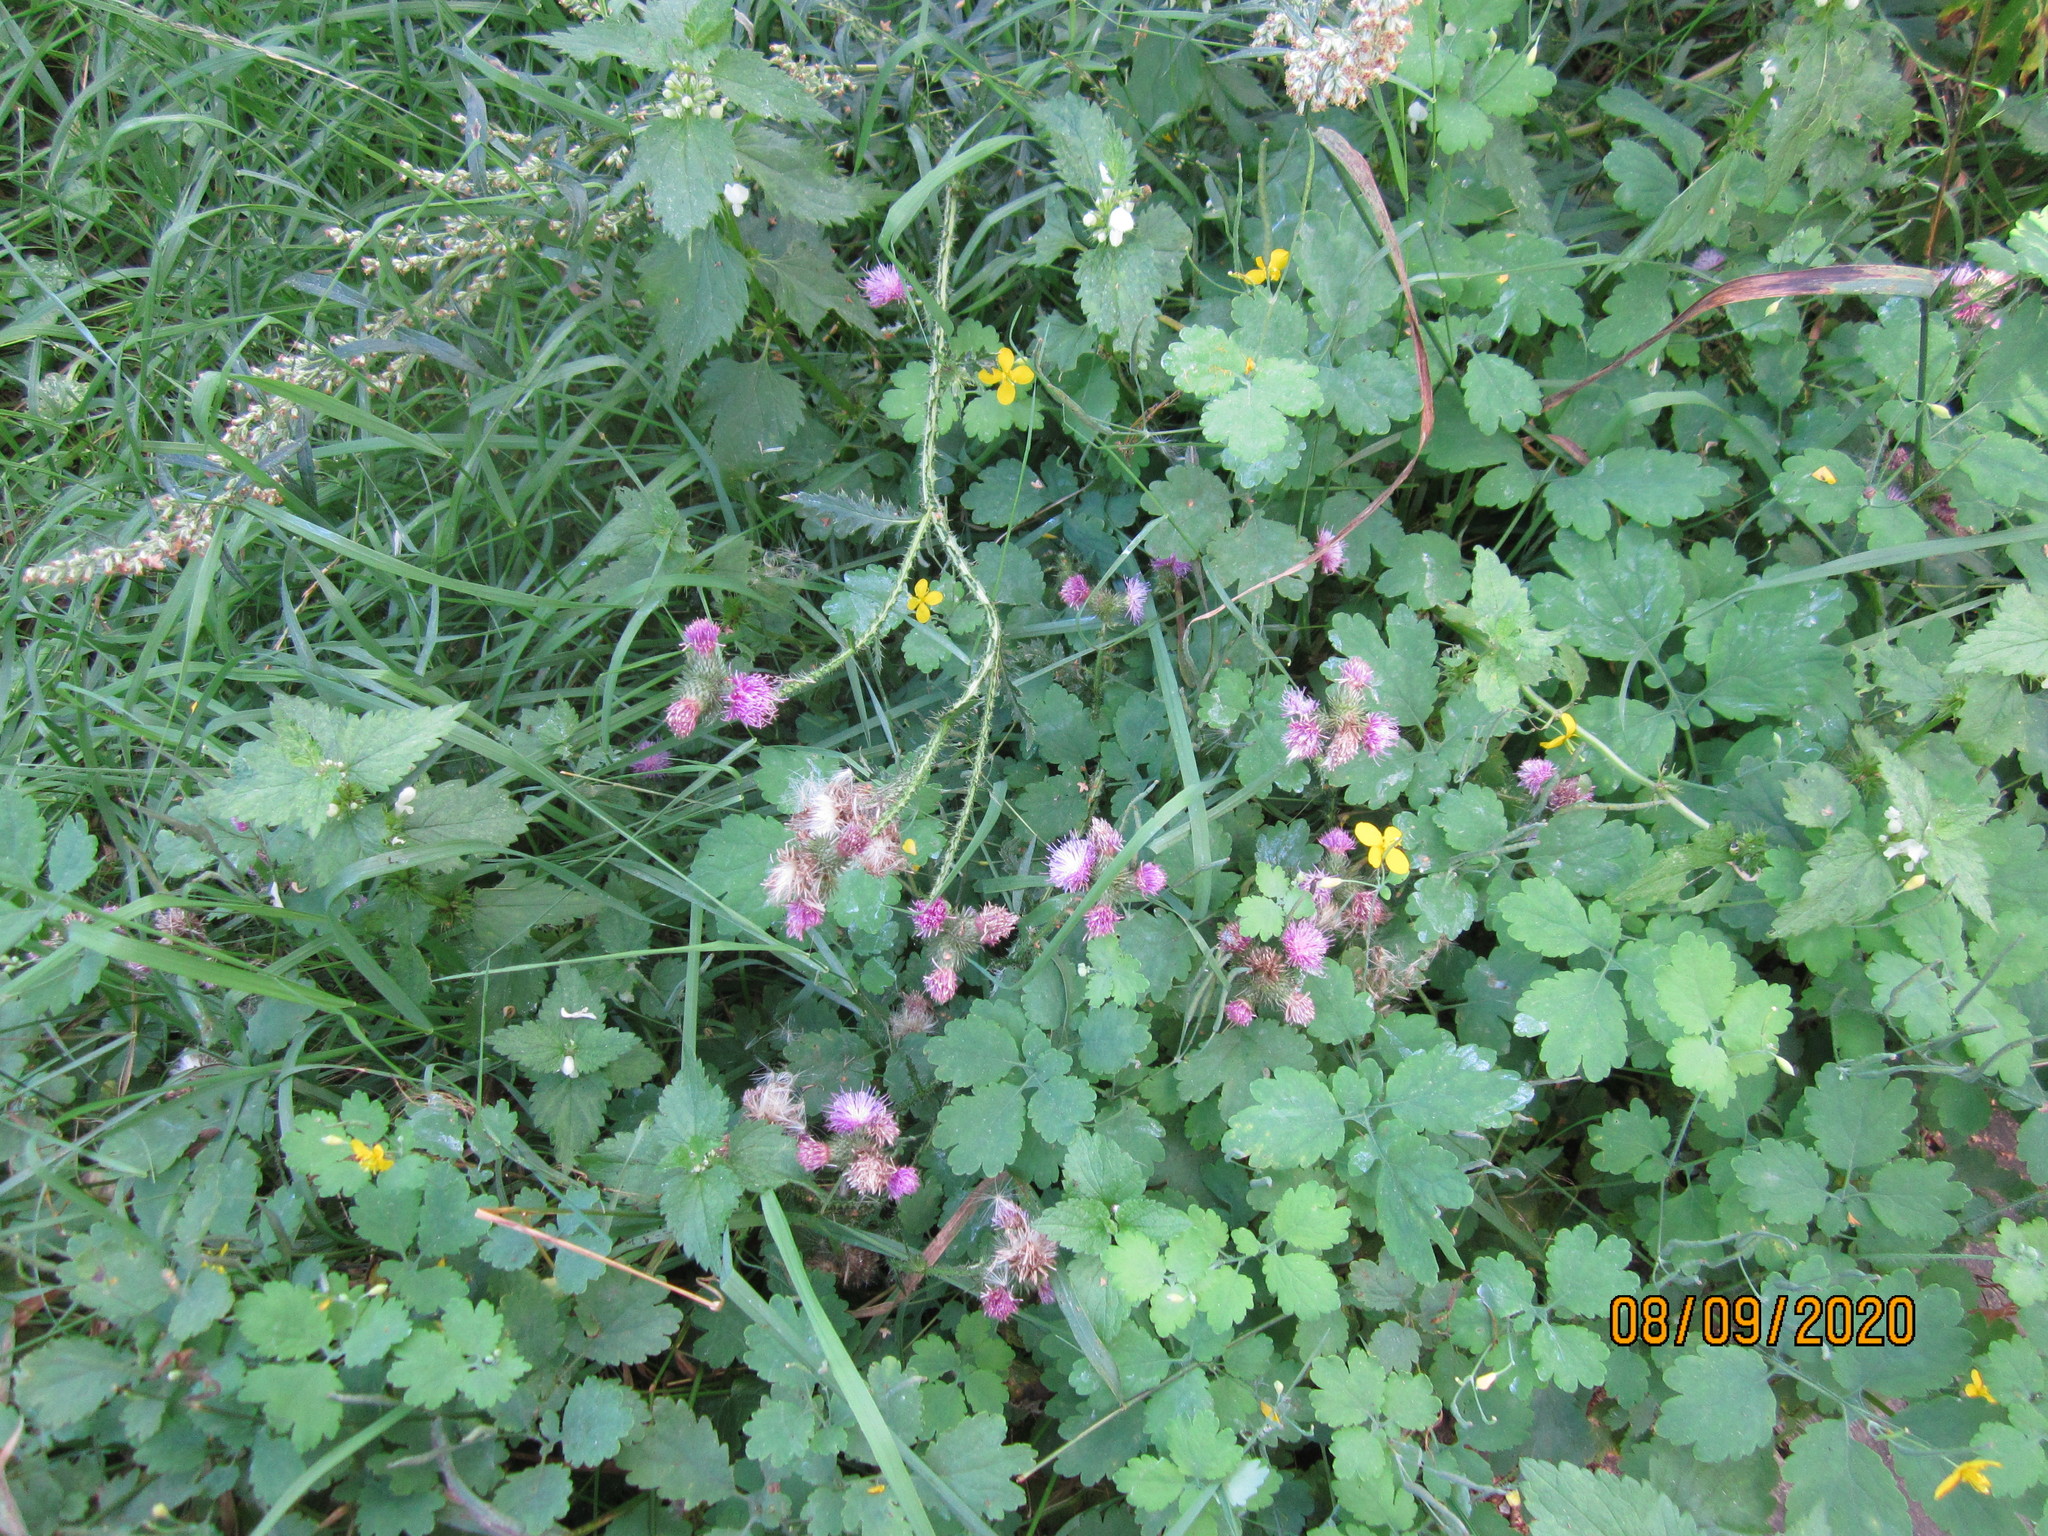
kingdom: Plantae
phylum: Tracheophyta
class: Magnoliopsida
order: Asterales
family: Asteraceae
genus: Carduus
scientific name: Carduus crispus
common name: Welted thistle
